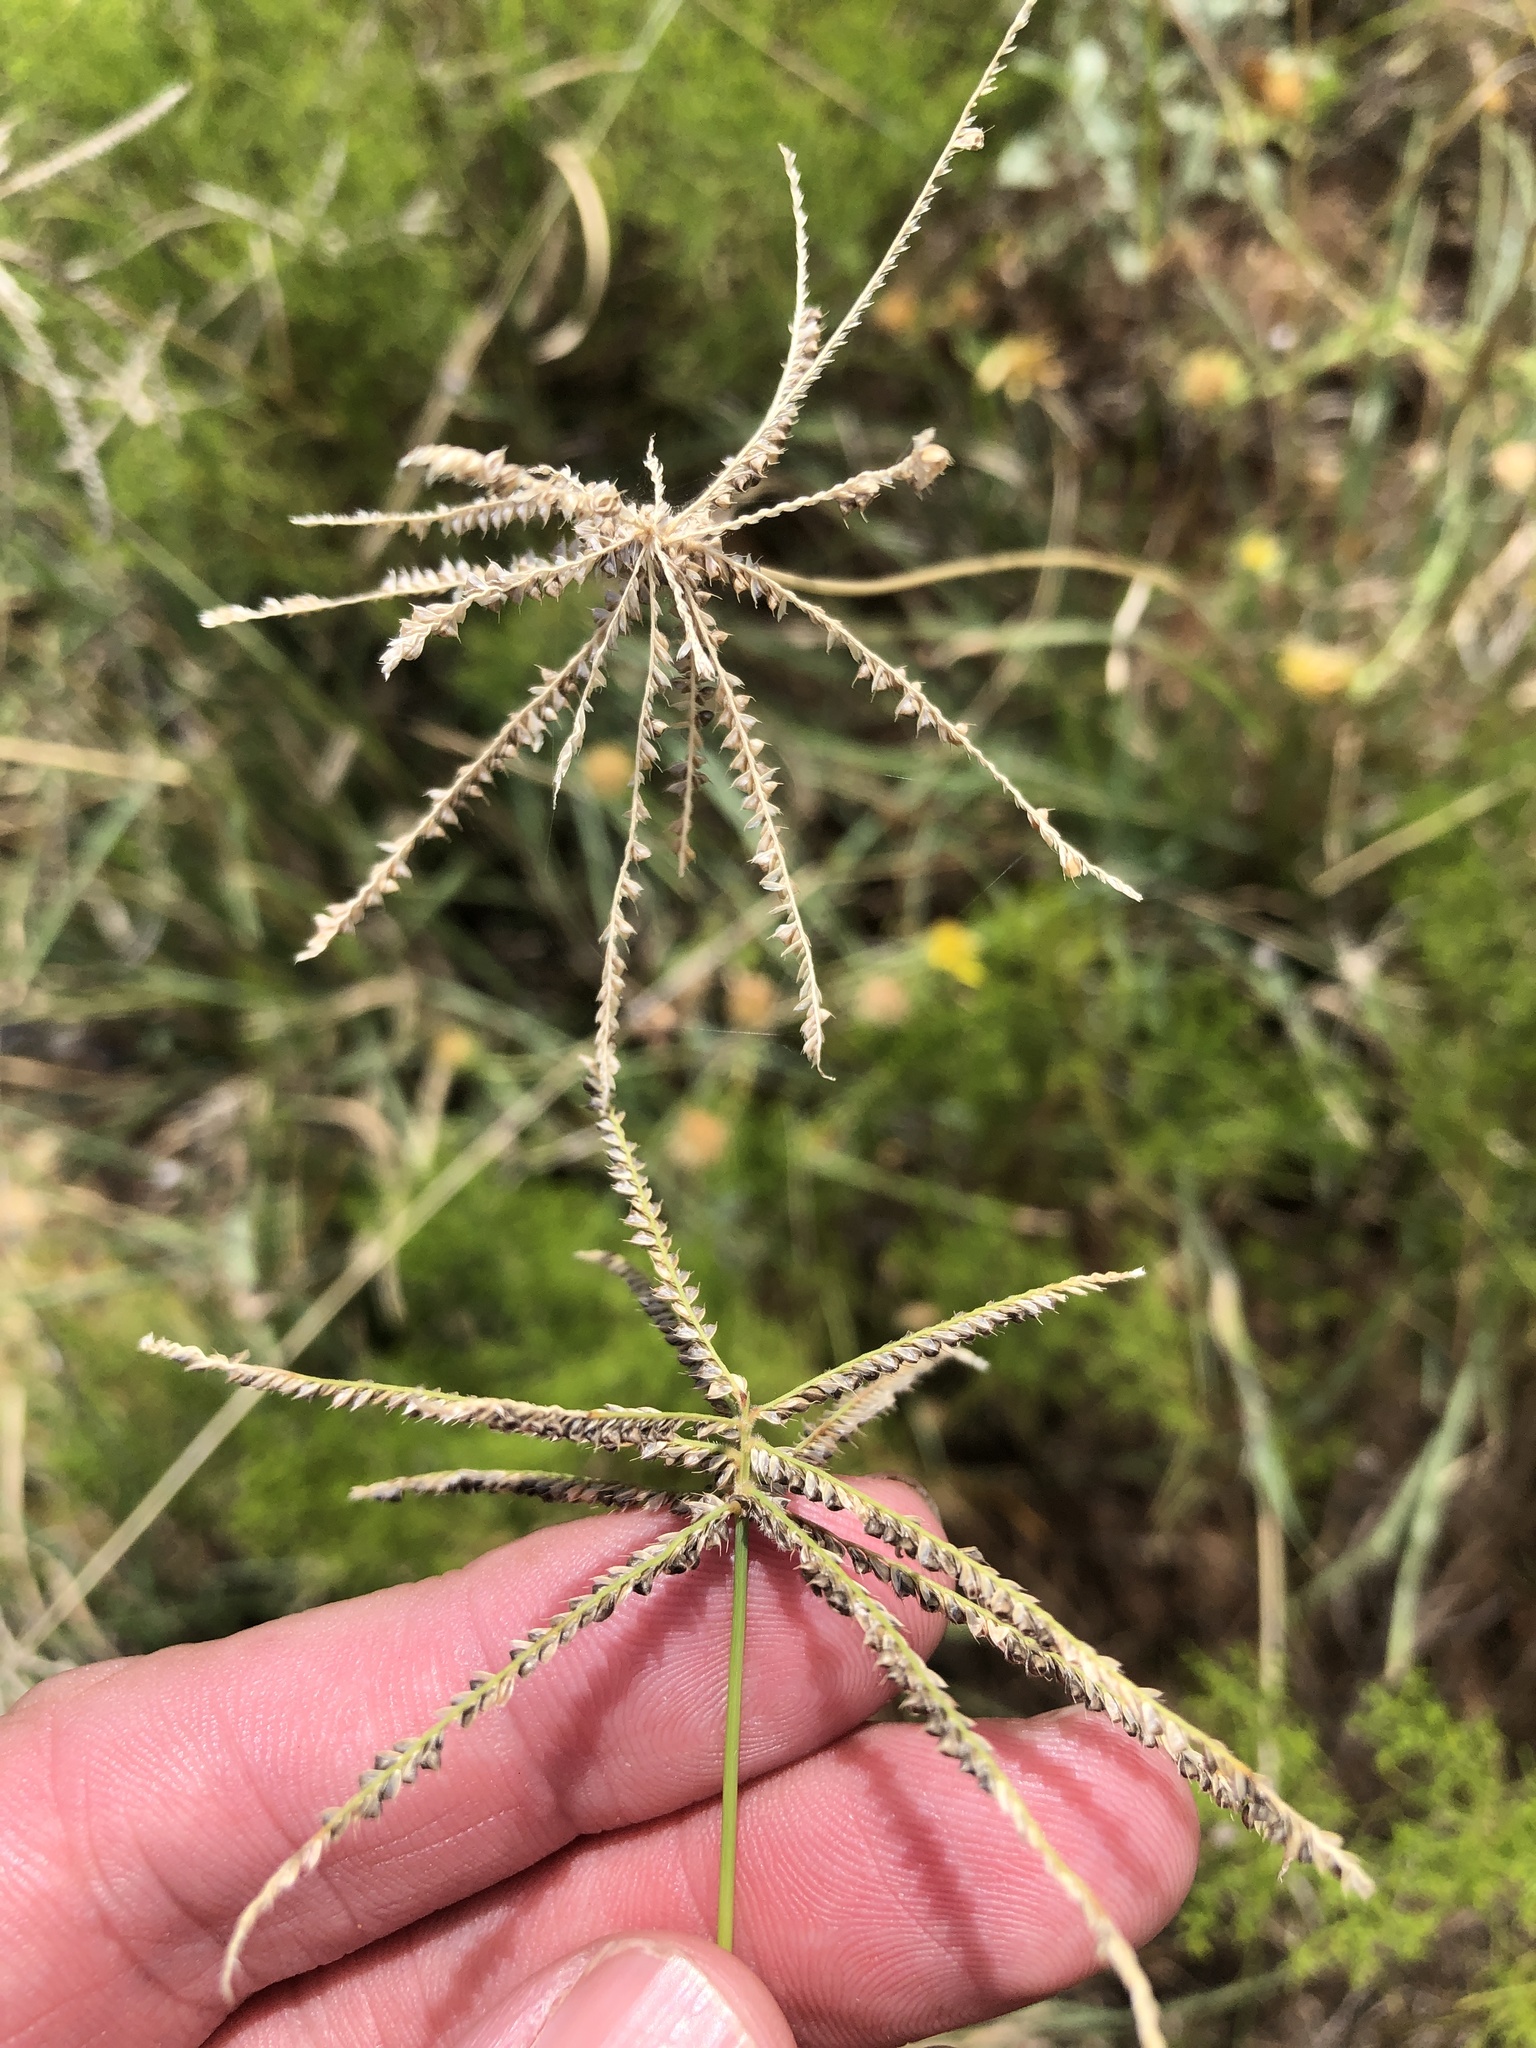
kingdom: Plantae
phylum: Tracheophyta
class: Liliopsida
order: Poales
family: Poaceae
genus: Chloris
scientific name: Chloris cucullata
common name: Hooded windmill grass
